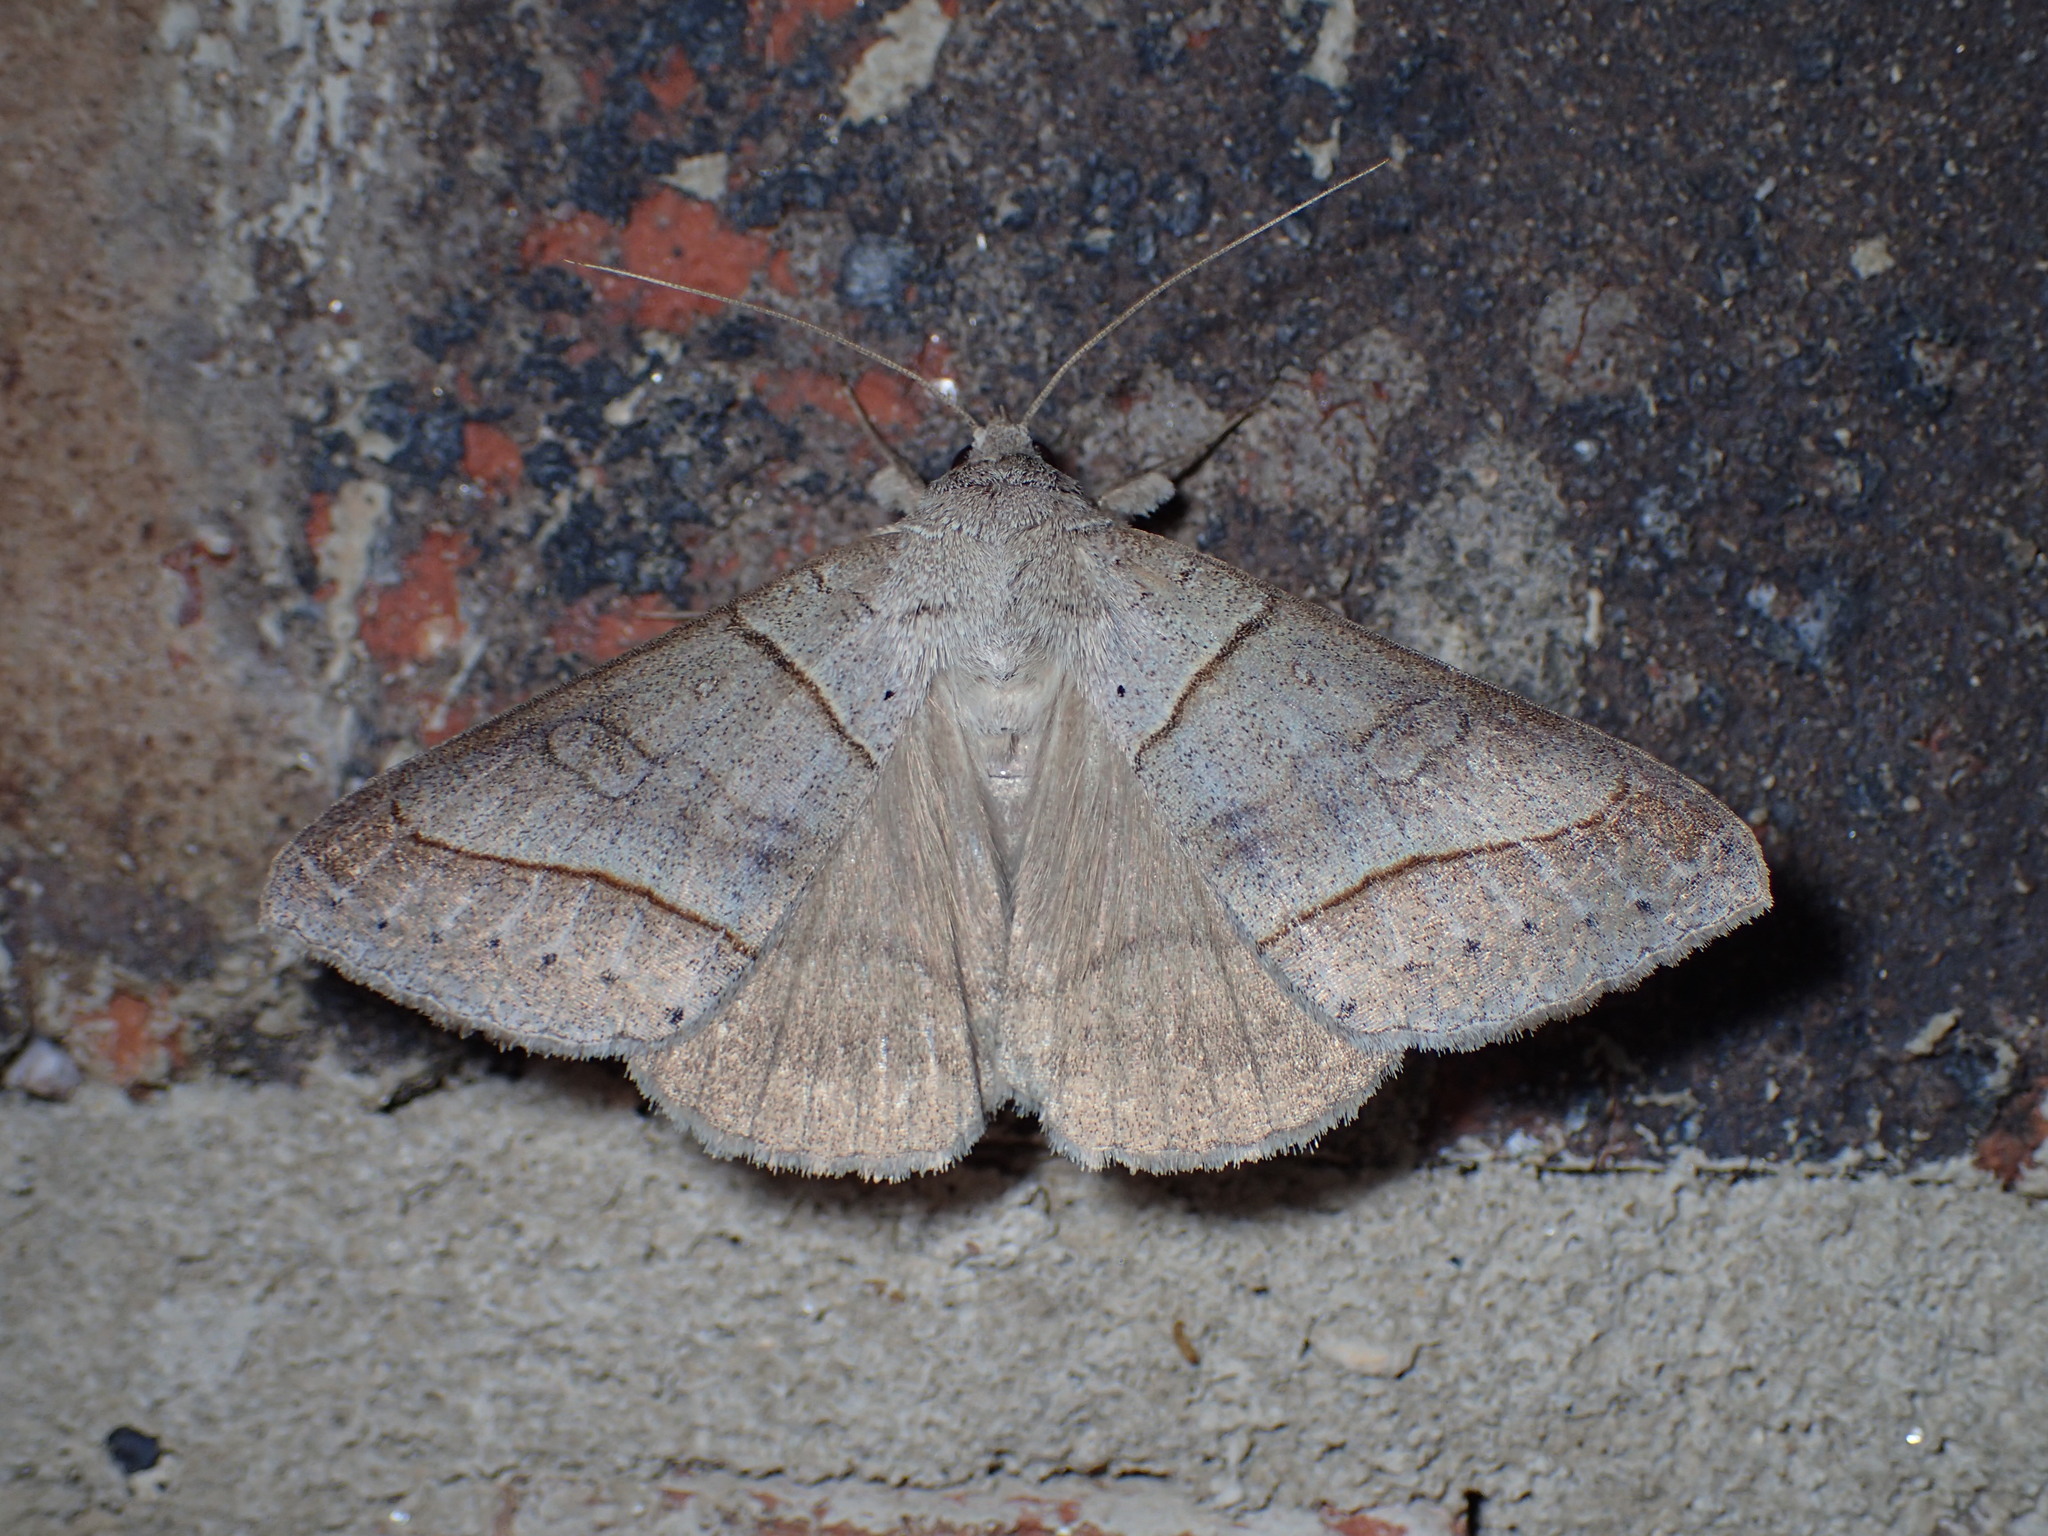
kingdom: Animalia
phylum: Arthropoda
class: Insecta
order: Lepidoptera
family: Erebidae
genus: Mocis
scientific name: Mocis texana
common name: Texas mocis moth
